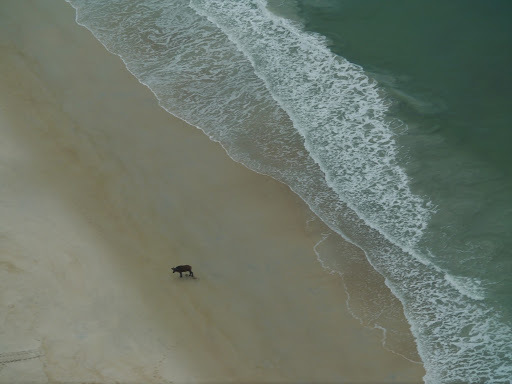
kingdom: Animalia
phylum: Chordata
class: Mammalia
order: Artiodactyla
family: Bovidae
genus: Syncerus
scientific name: Syncerus caffer
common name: African buffalo
